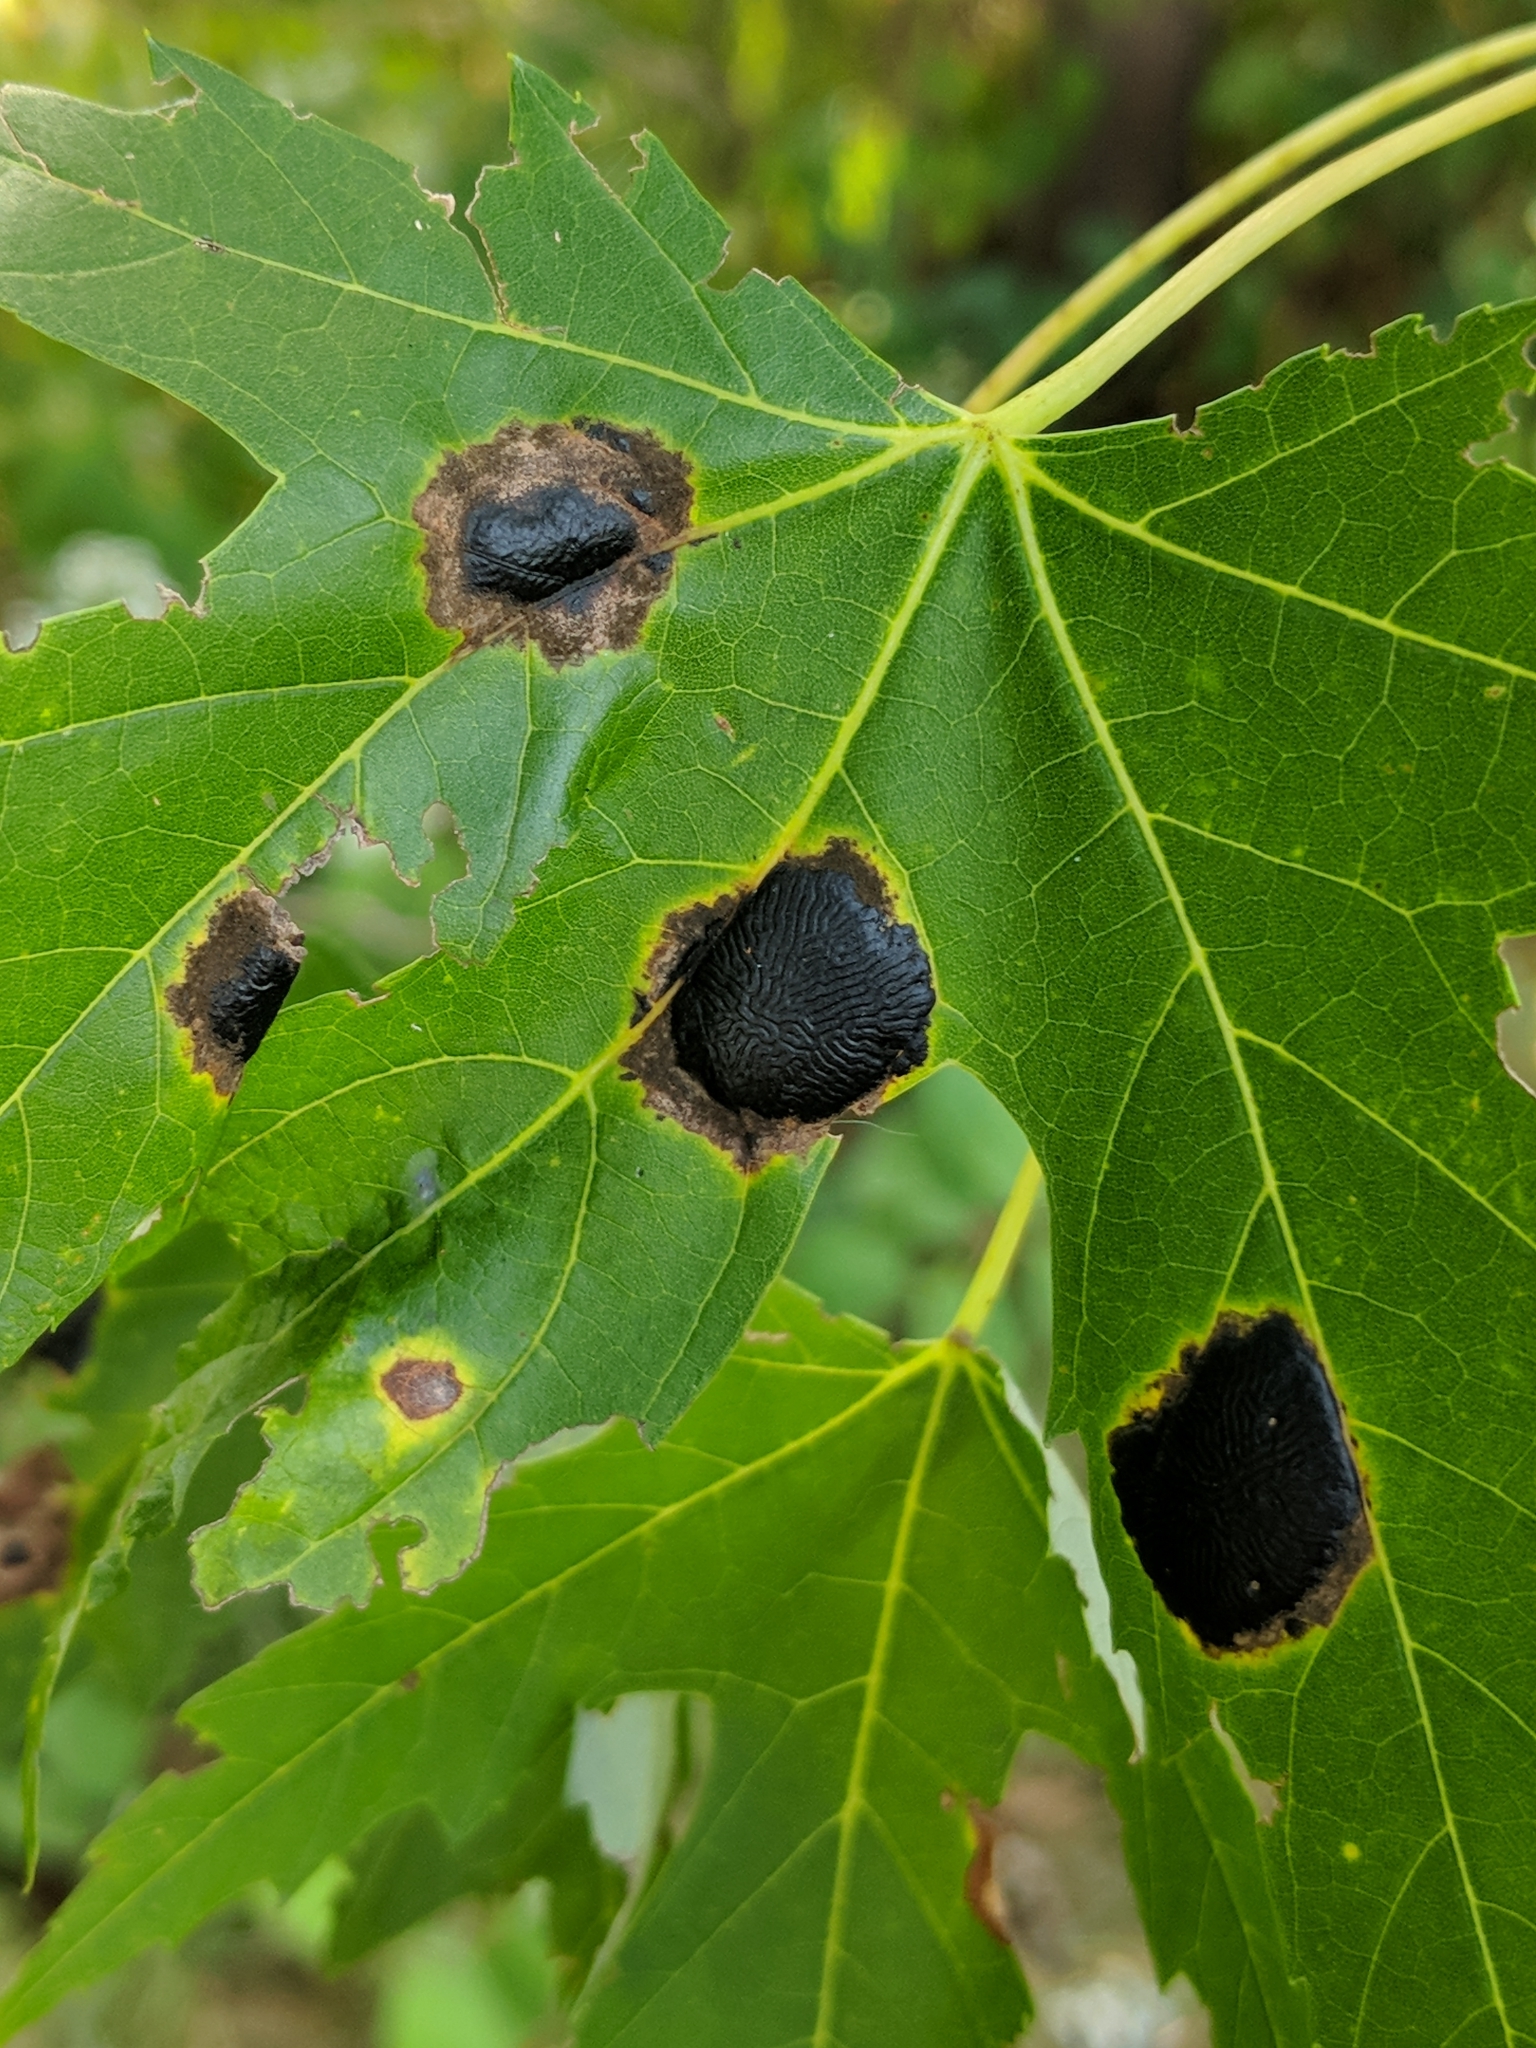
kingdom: Fungi
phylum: Ascomycota
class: Leotiomycetes
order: Rhytismatales
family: Rhytismataceae
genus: Rhytisma
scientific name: Rhytisma americanum
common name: American tar spot
